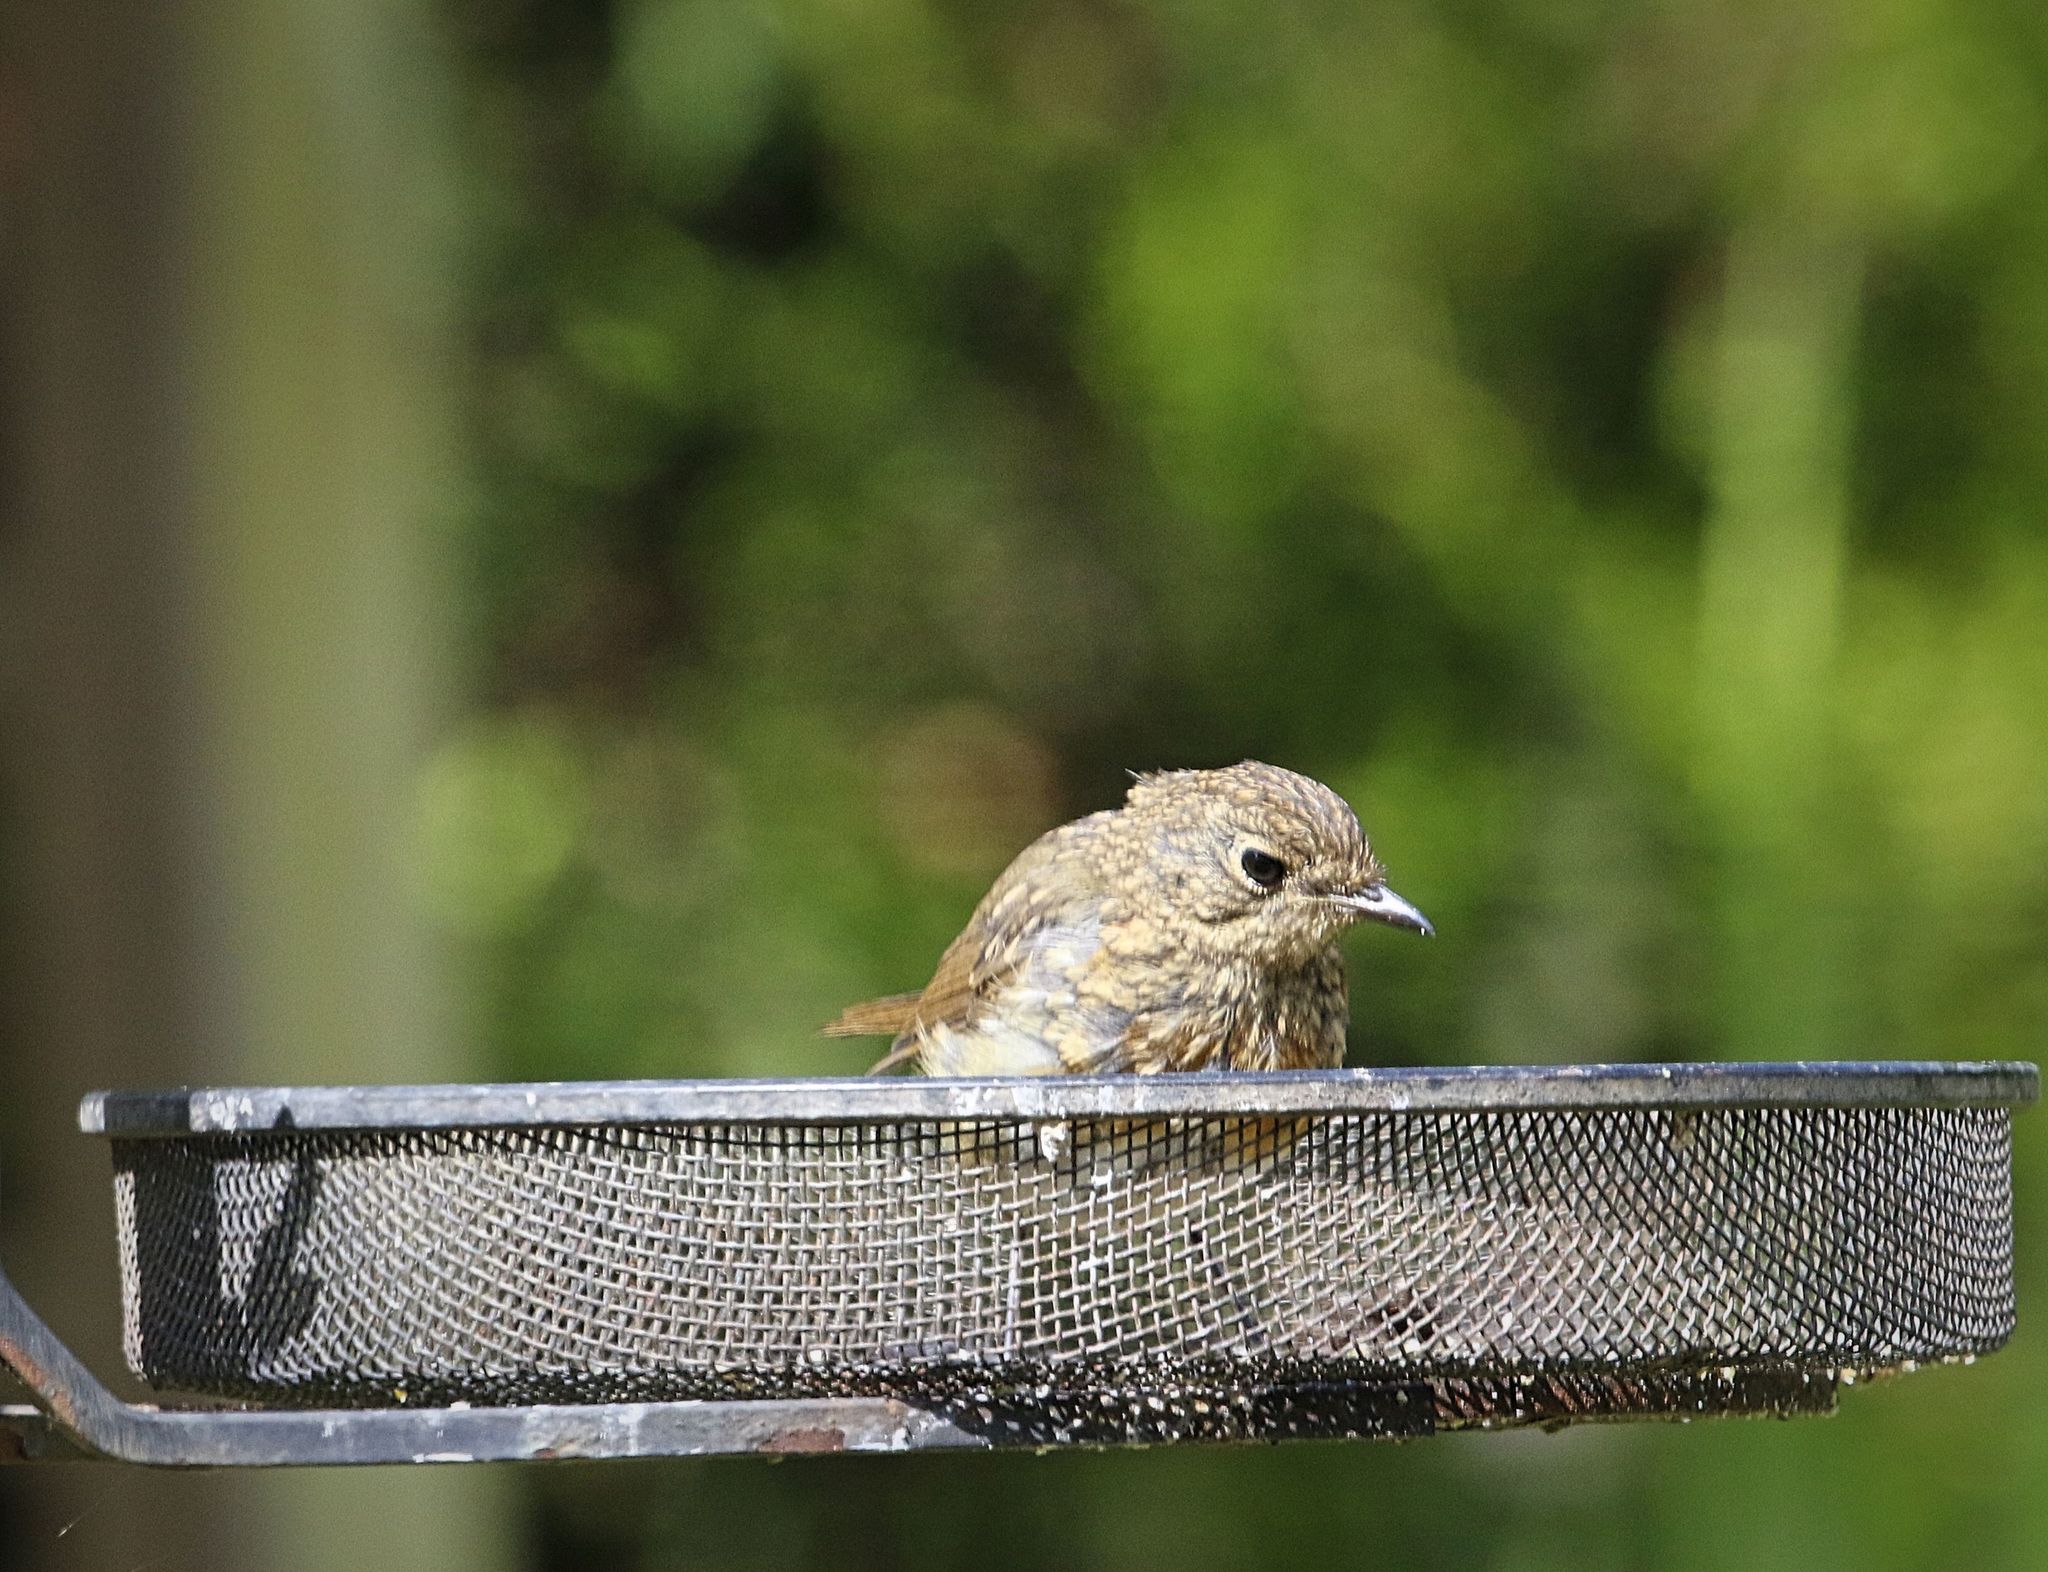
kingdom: Animalia
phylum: Chordata
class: Aves
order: Passeriformes
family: Muscicapidae
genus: Erithacus
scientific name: Erithacus rubecula
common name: European robin
